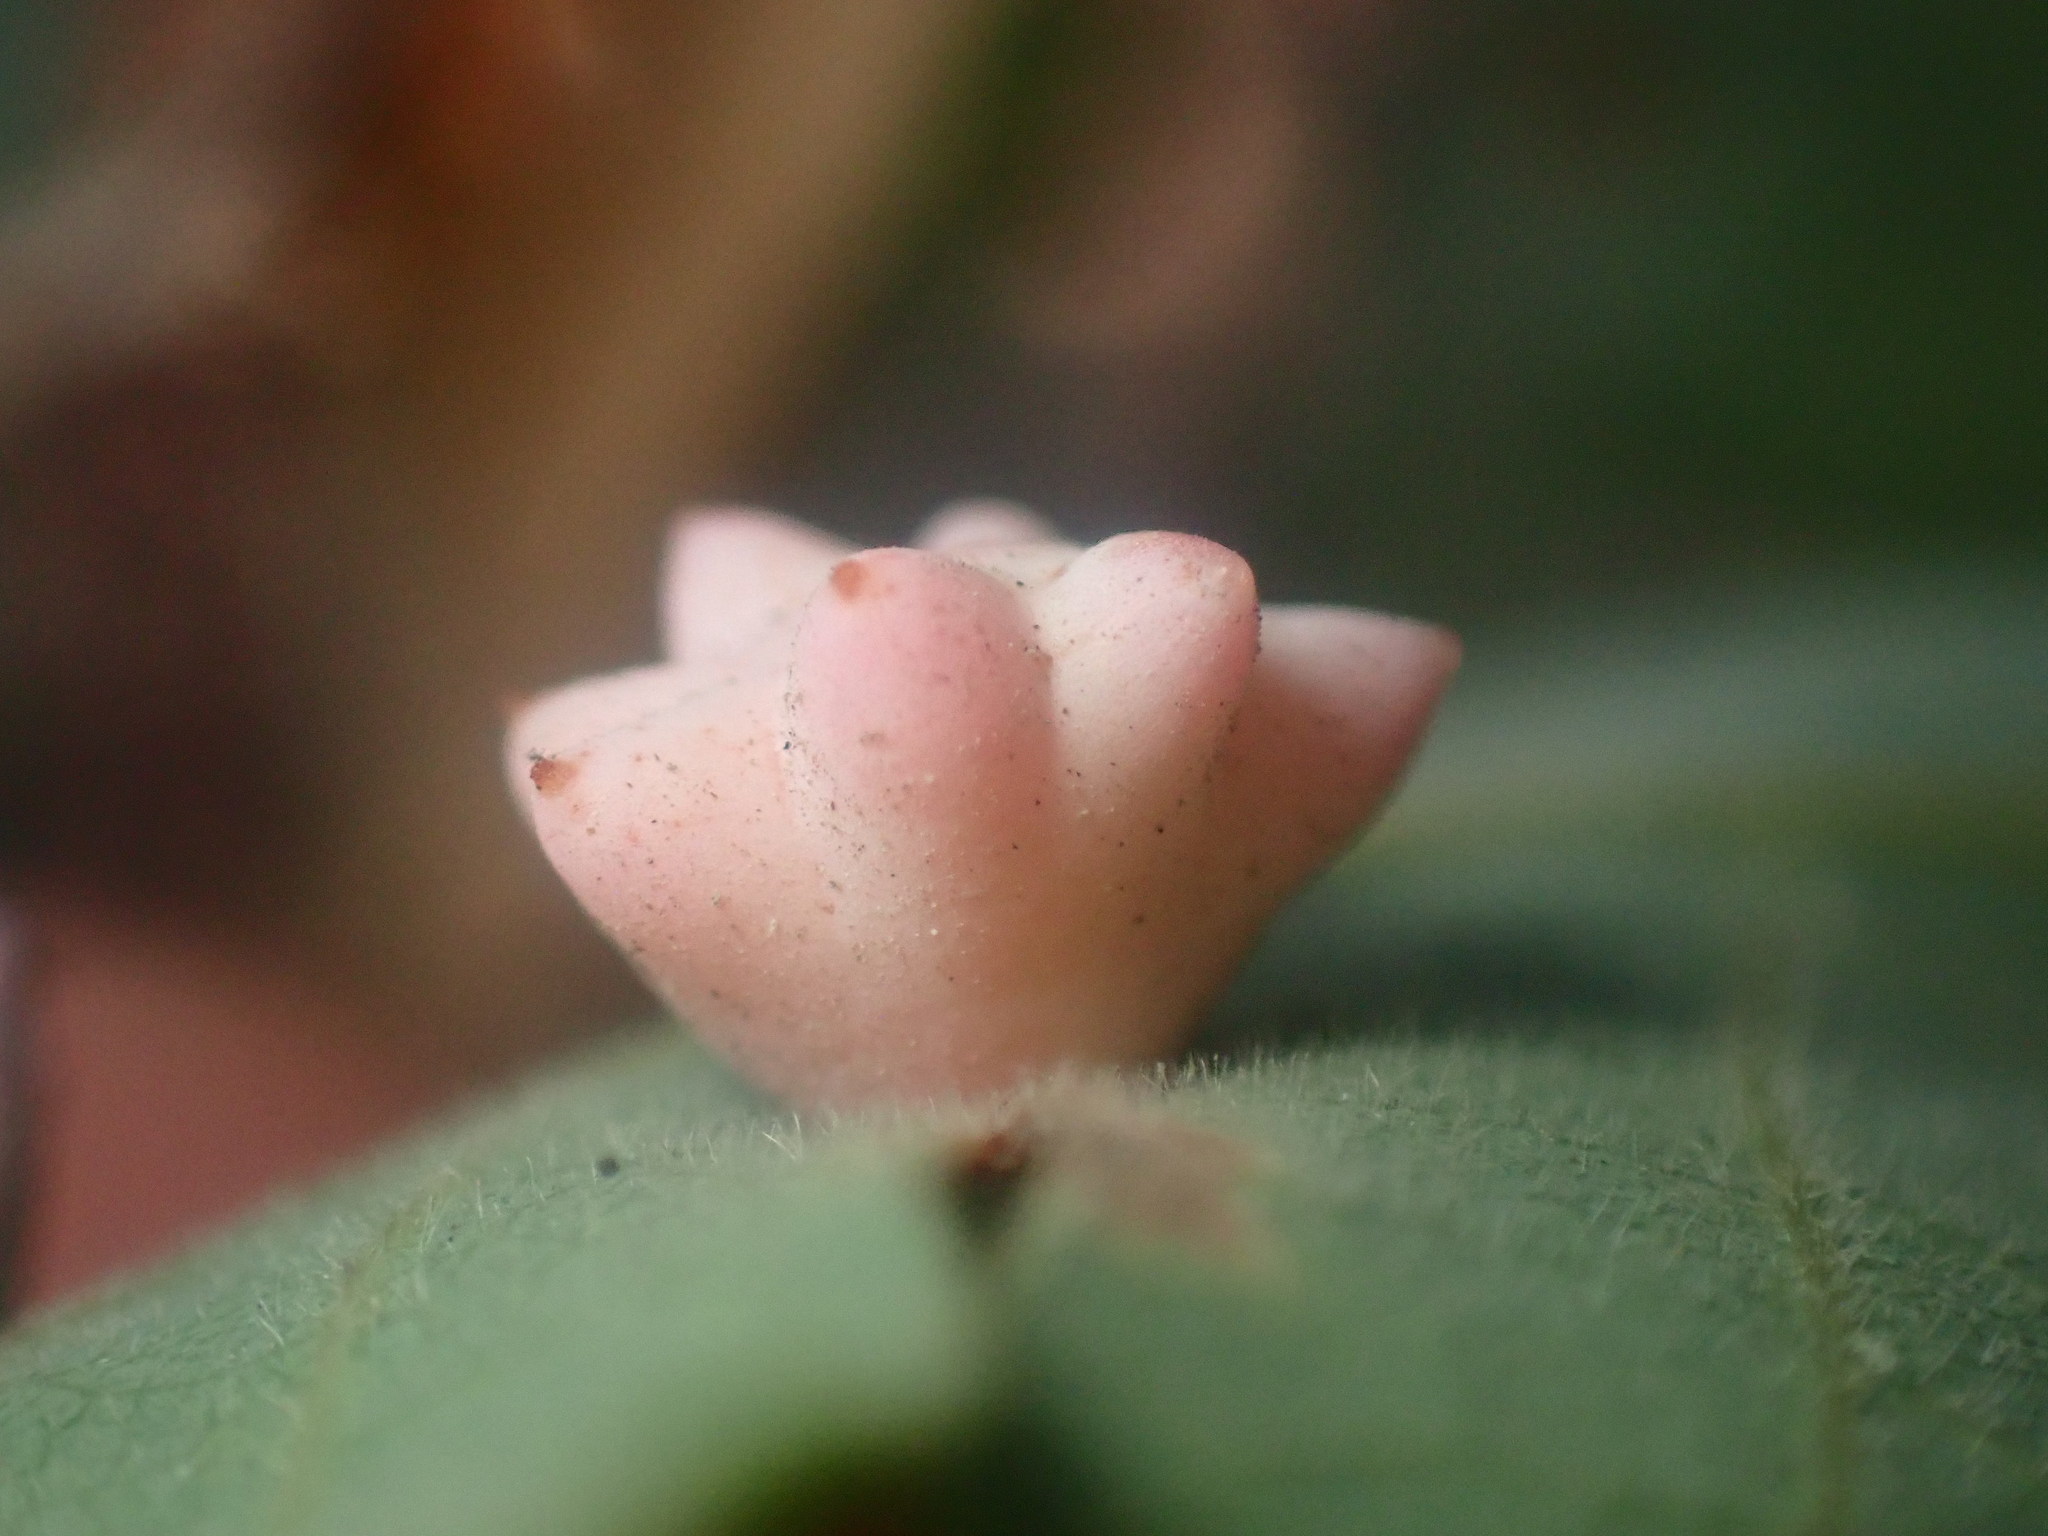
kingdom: Animalia
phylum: Arthropoda
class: Insecta
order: Hymenoptera
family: Cynipidae
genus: Cynips
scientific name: Cynips douglasi
